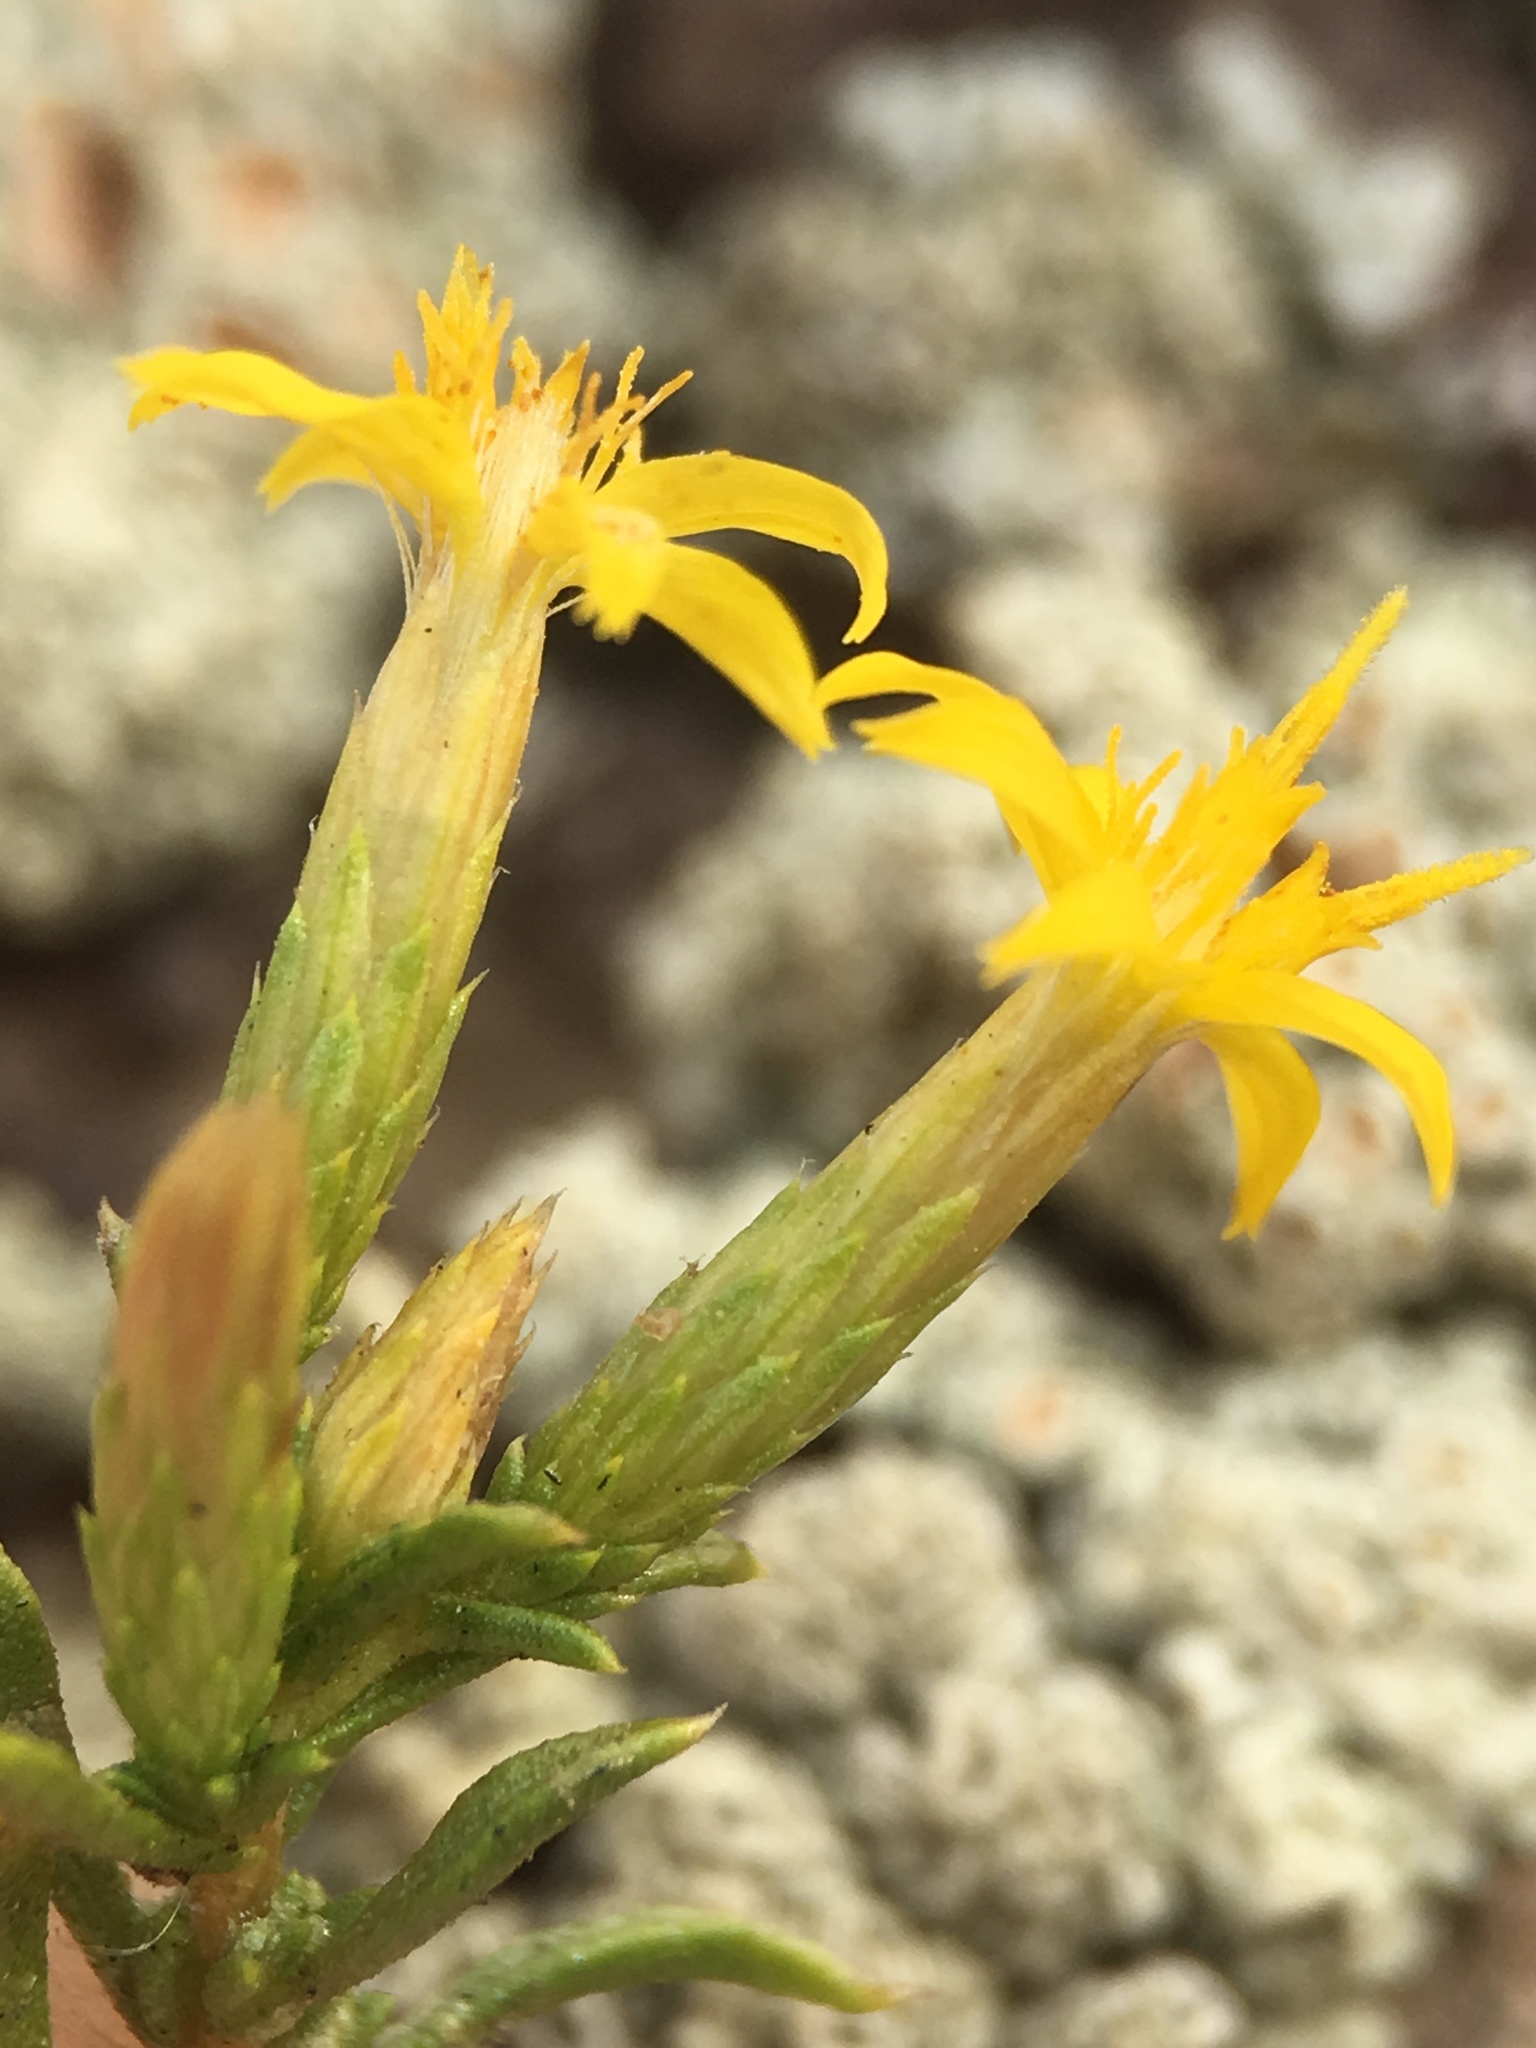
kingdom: Plantae
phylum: Tracheophyta
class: Magnoliopsida
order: Asterales
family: Asteraceae
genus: Ericameria
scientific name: Ericameria nana
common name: Dwarf goldenbush
